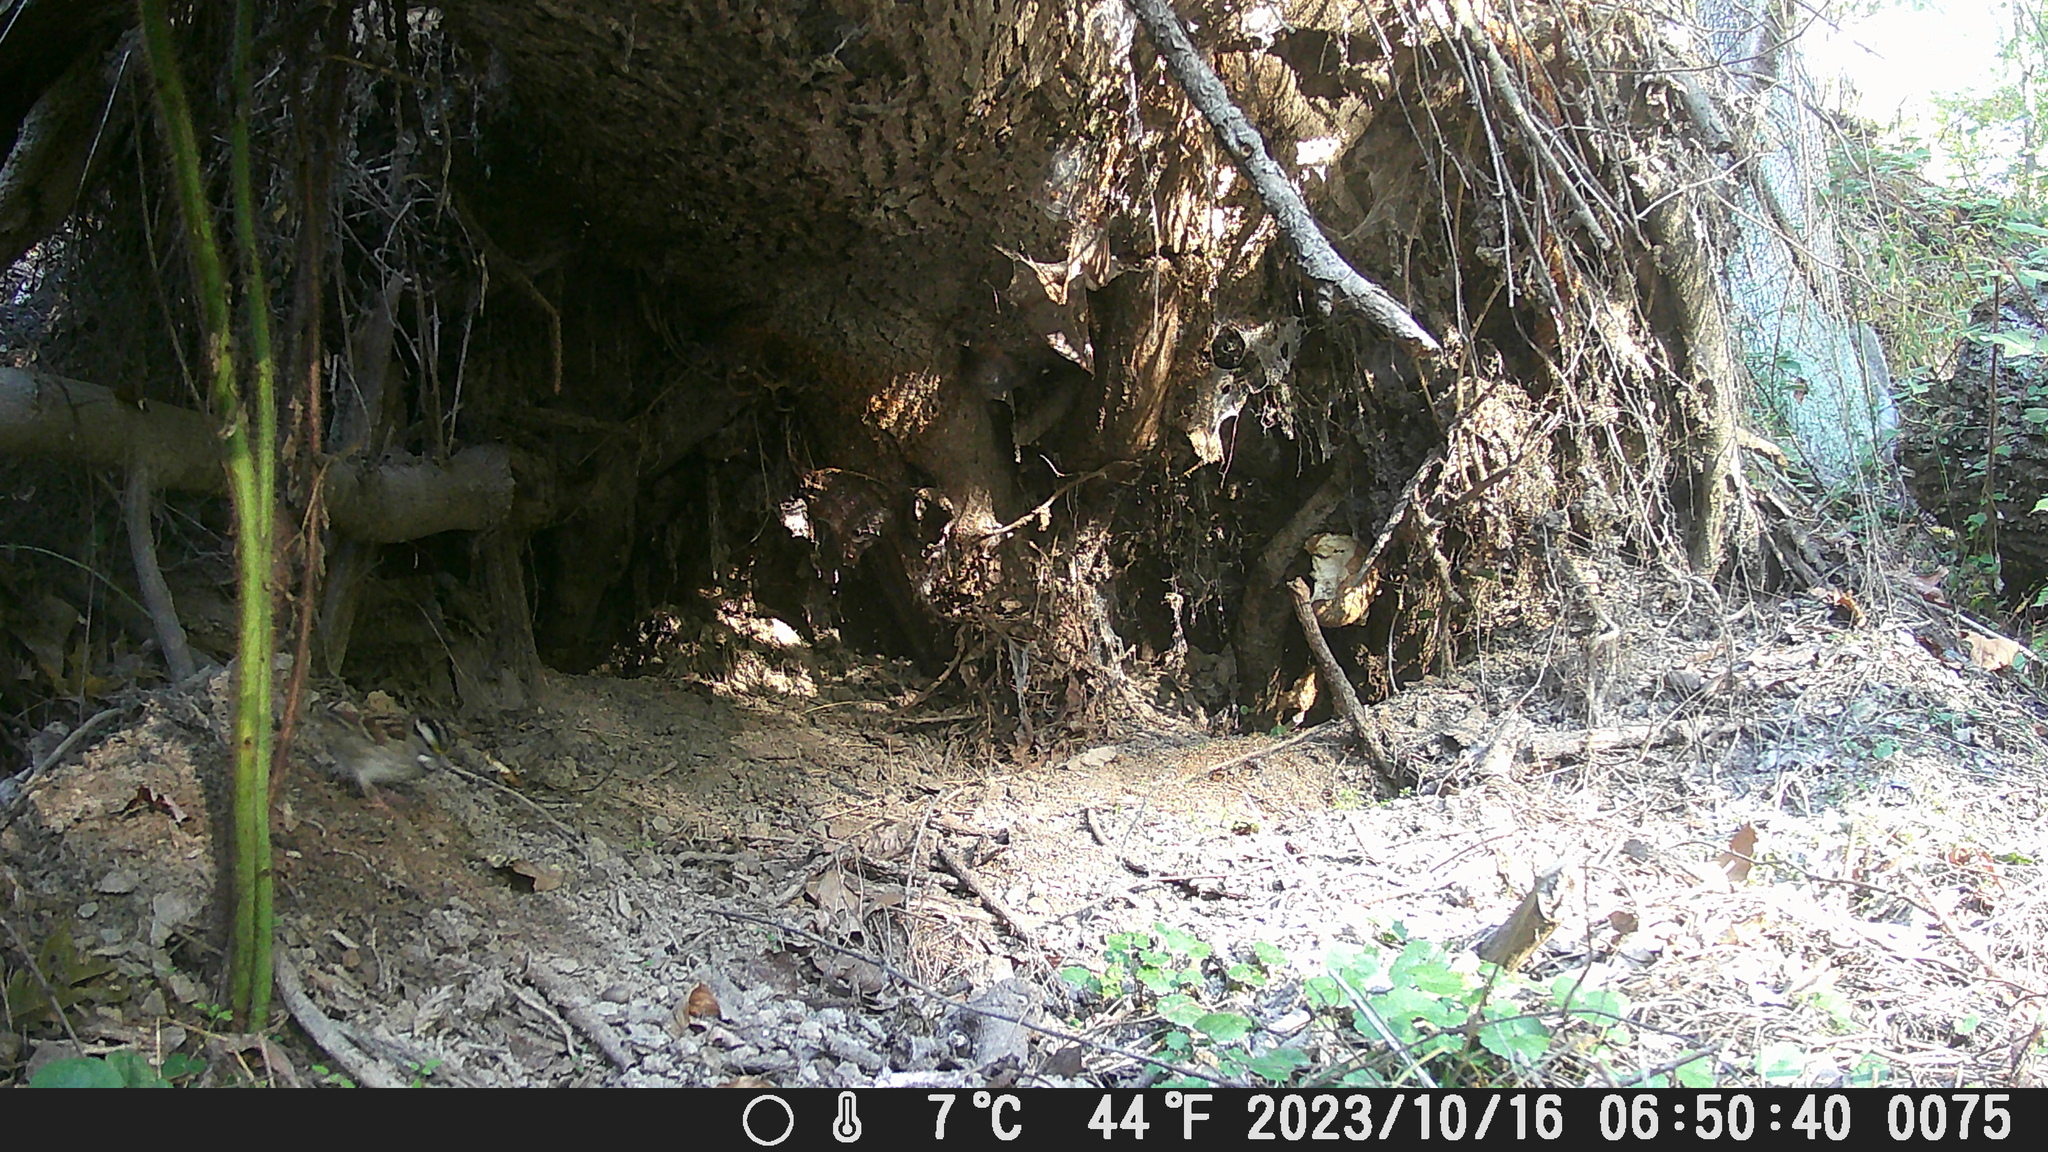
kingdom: Animalia
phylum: Chordata
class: Aves
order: Passeriformes
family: Passerellidae
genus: Zonotrichia
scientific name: Zonotrichia albicollis
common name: White-throated sparrow
